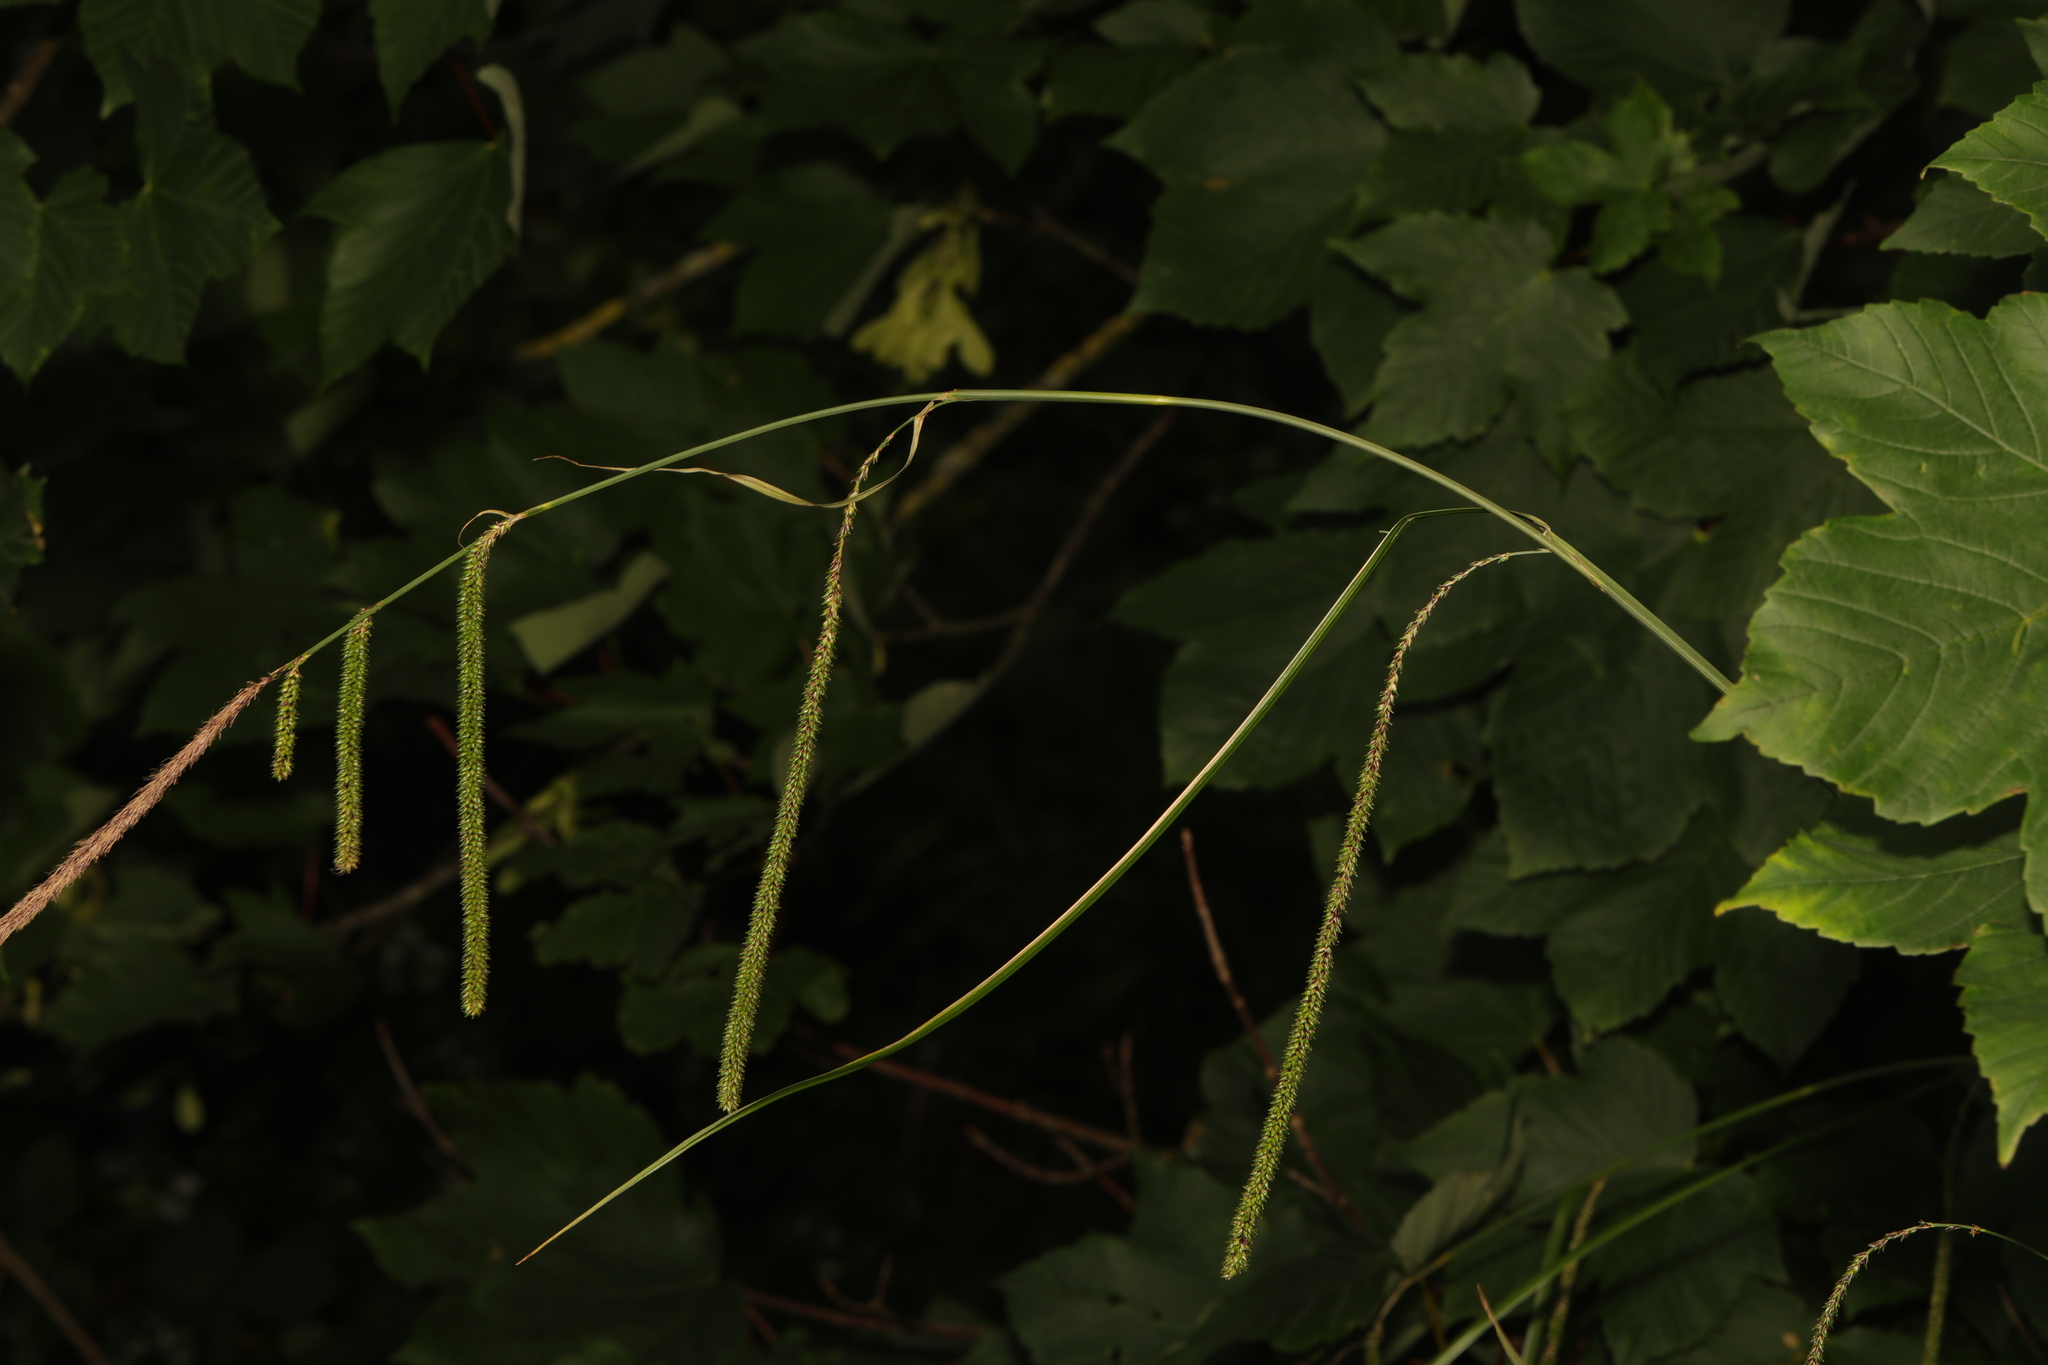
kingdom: Plantae
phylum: Tracheophyta
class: Liliopsida
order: Poales
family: Cyperaceae
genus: Carex
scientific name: Carex pendula
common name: Pendulous sedge
